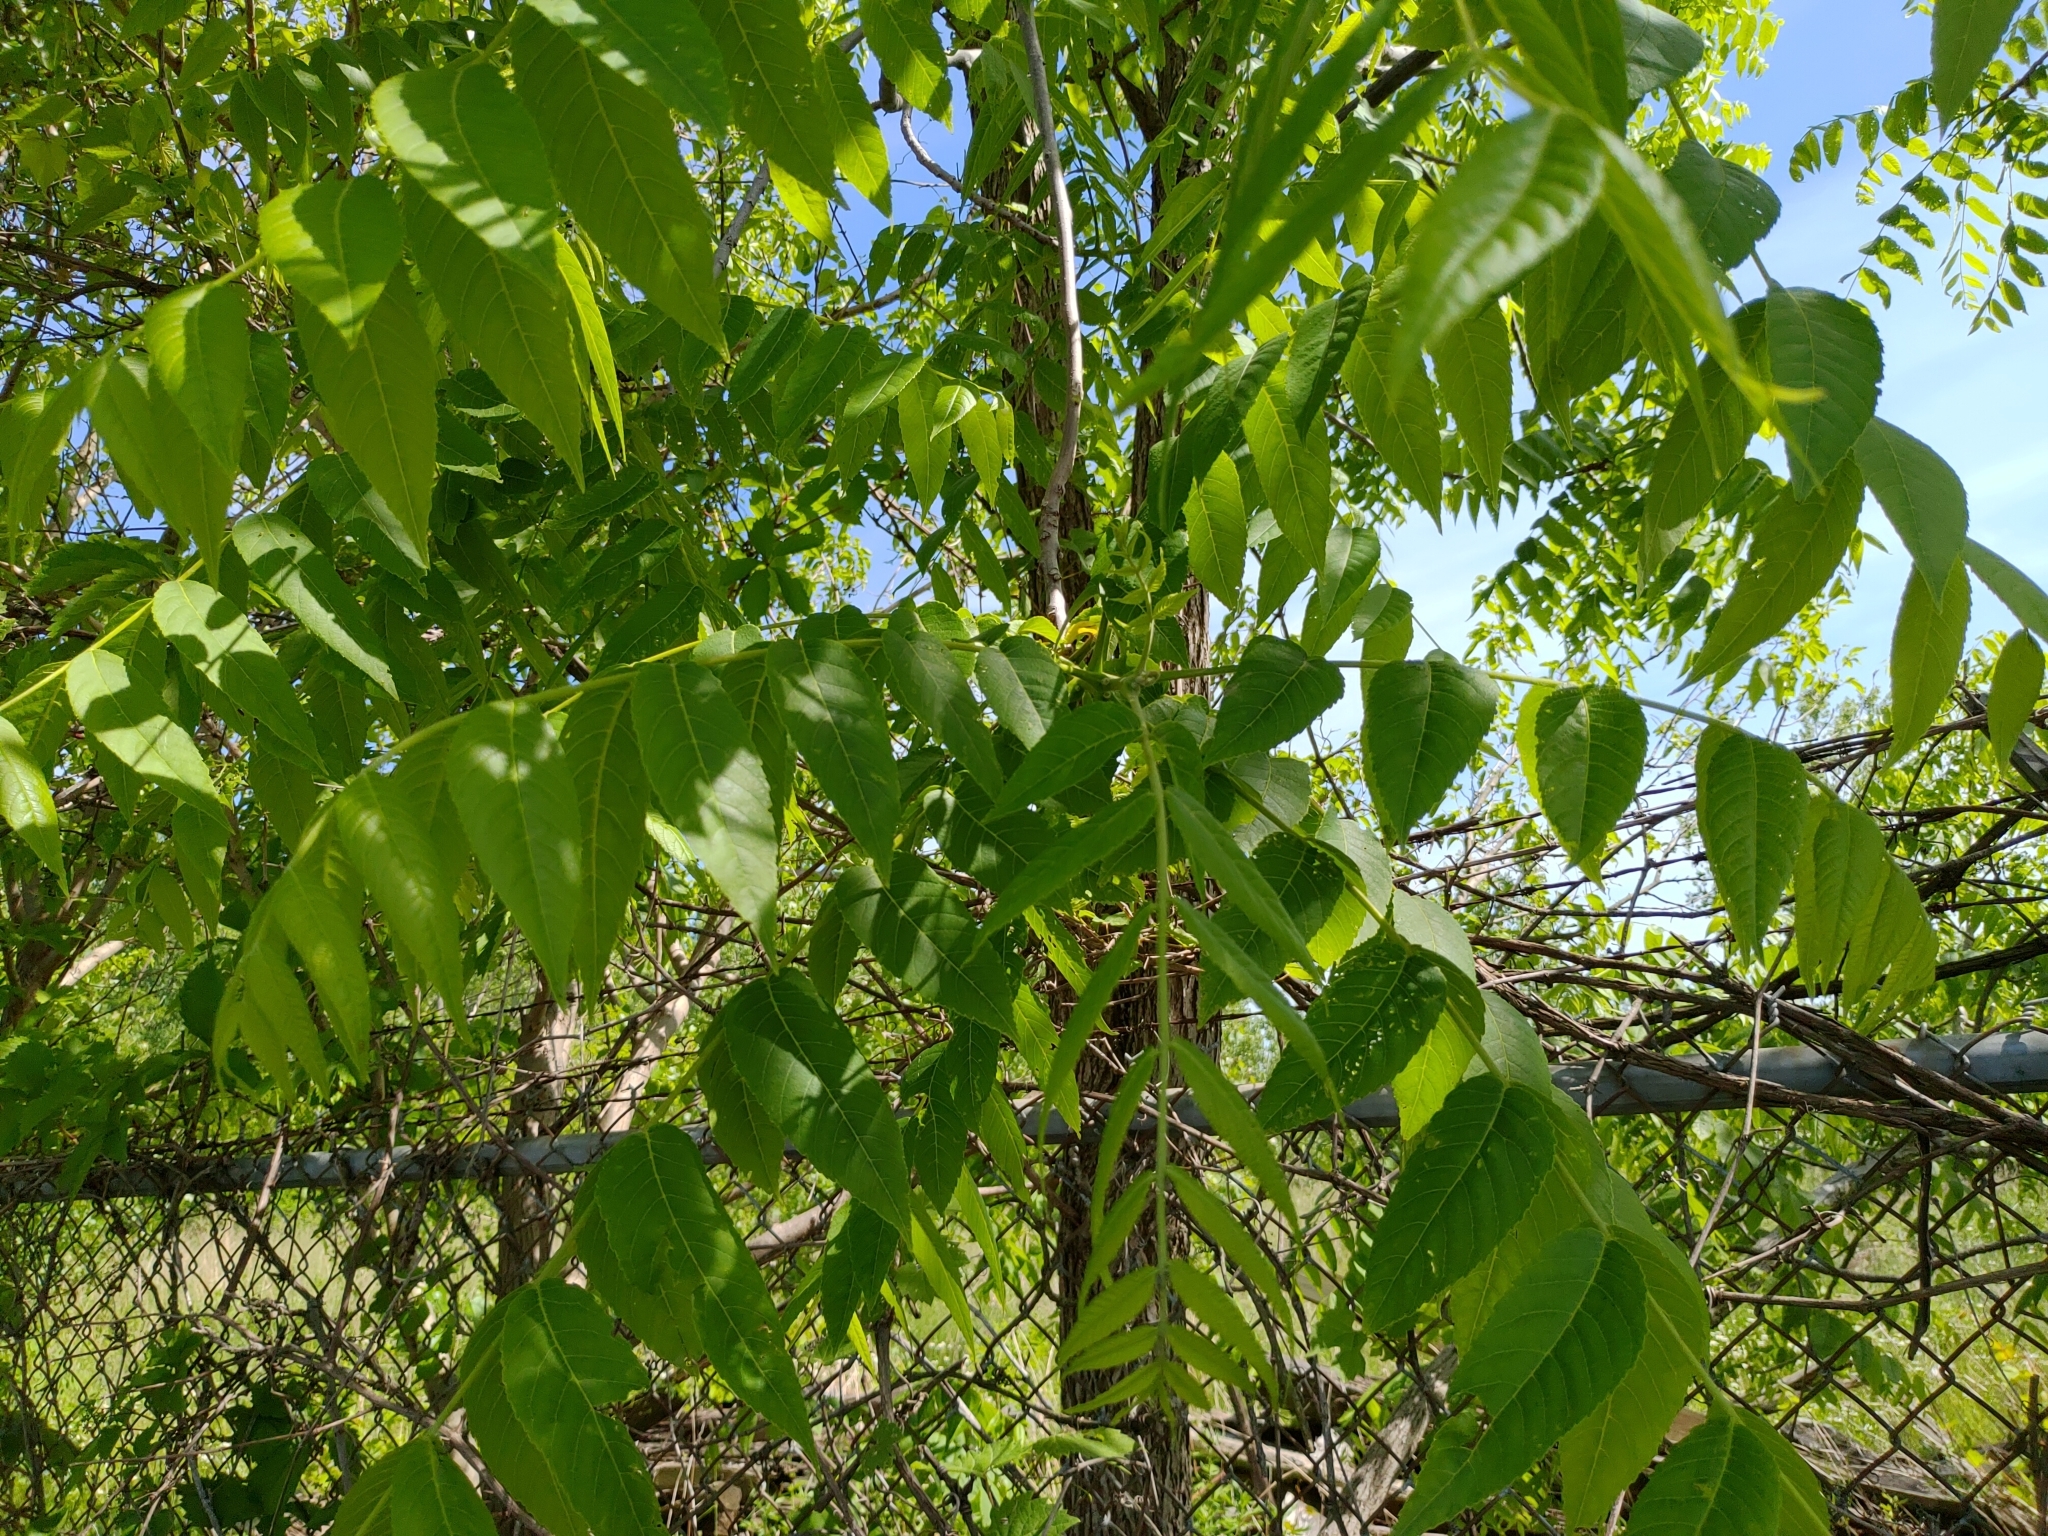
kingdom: Plantae
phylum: Tracheophyta
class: Magnoliopsida
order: Fagales
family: Juglandaceae
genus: Juglans
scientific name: Juglans nigra
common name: Black walnut
